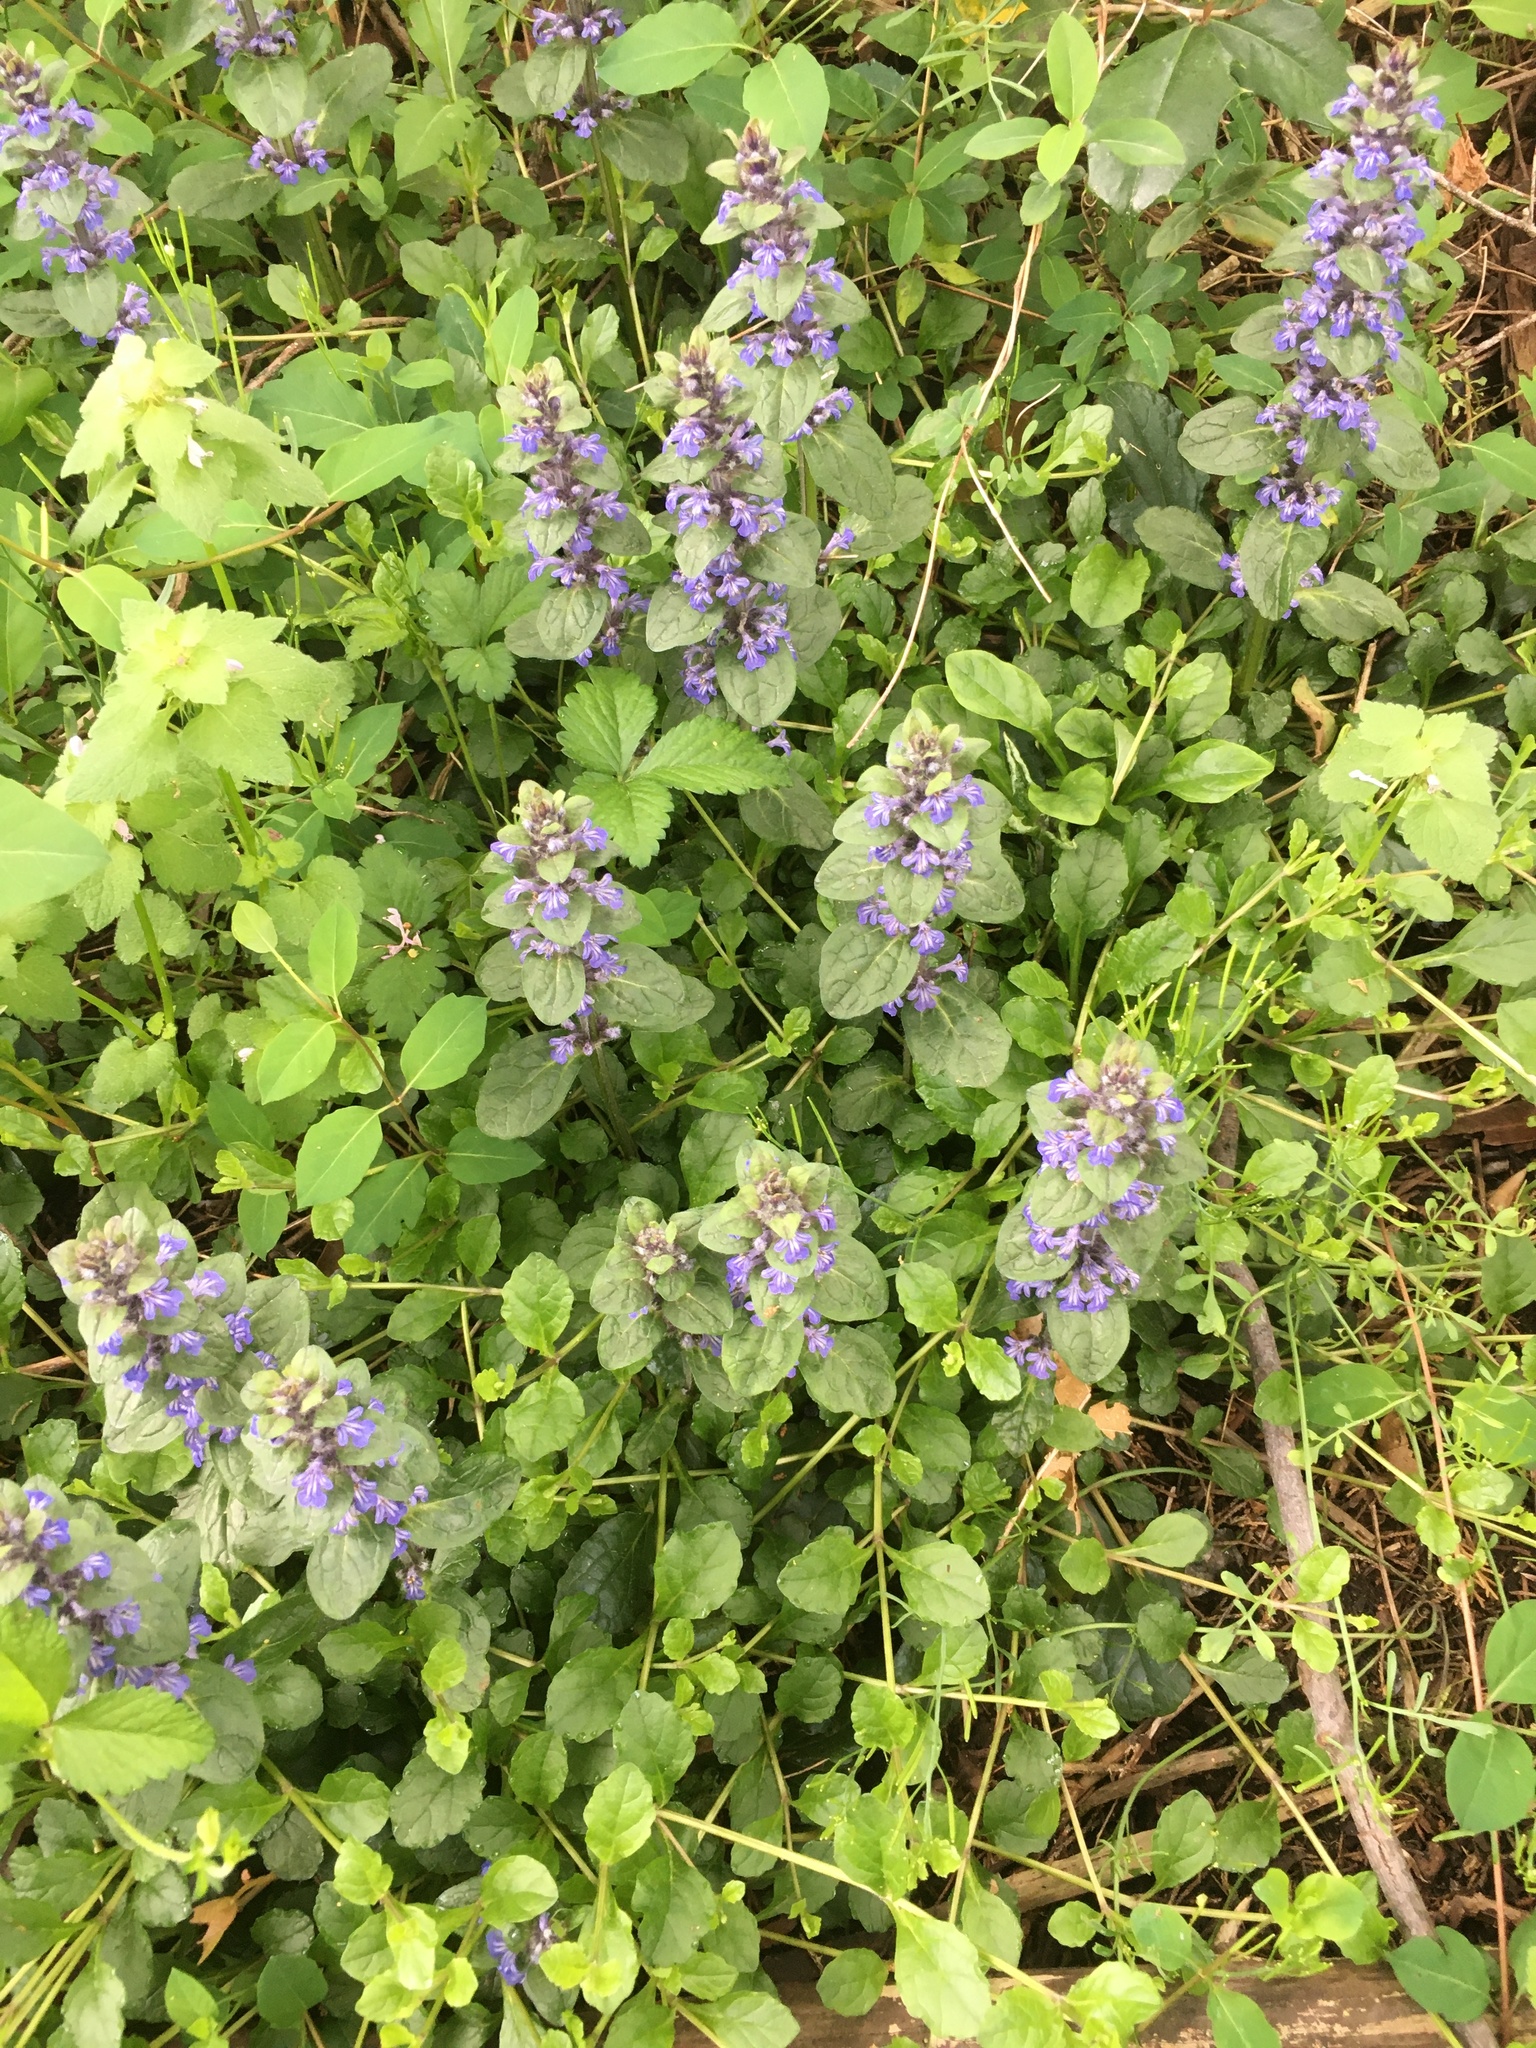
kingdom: Plantae
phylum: Tracheophyta
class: Magnoliopsida
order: Lamiales
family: Lamiaceae
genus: Ajuga
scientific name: Ajuga reptans
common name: Bugle
